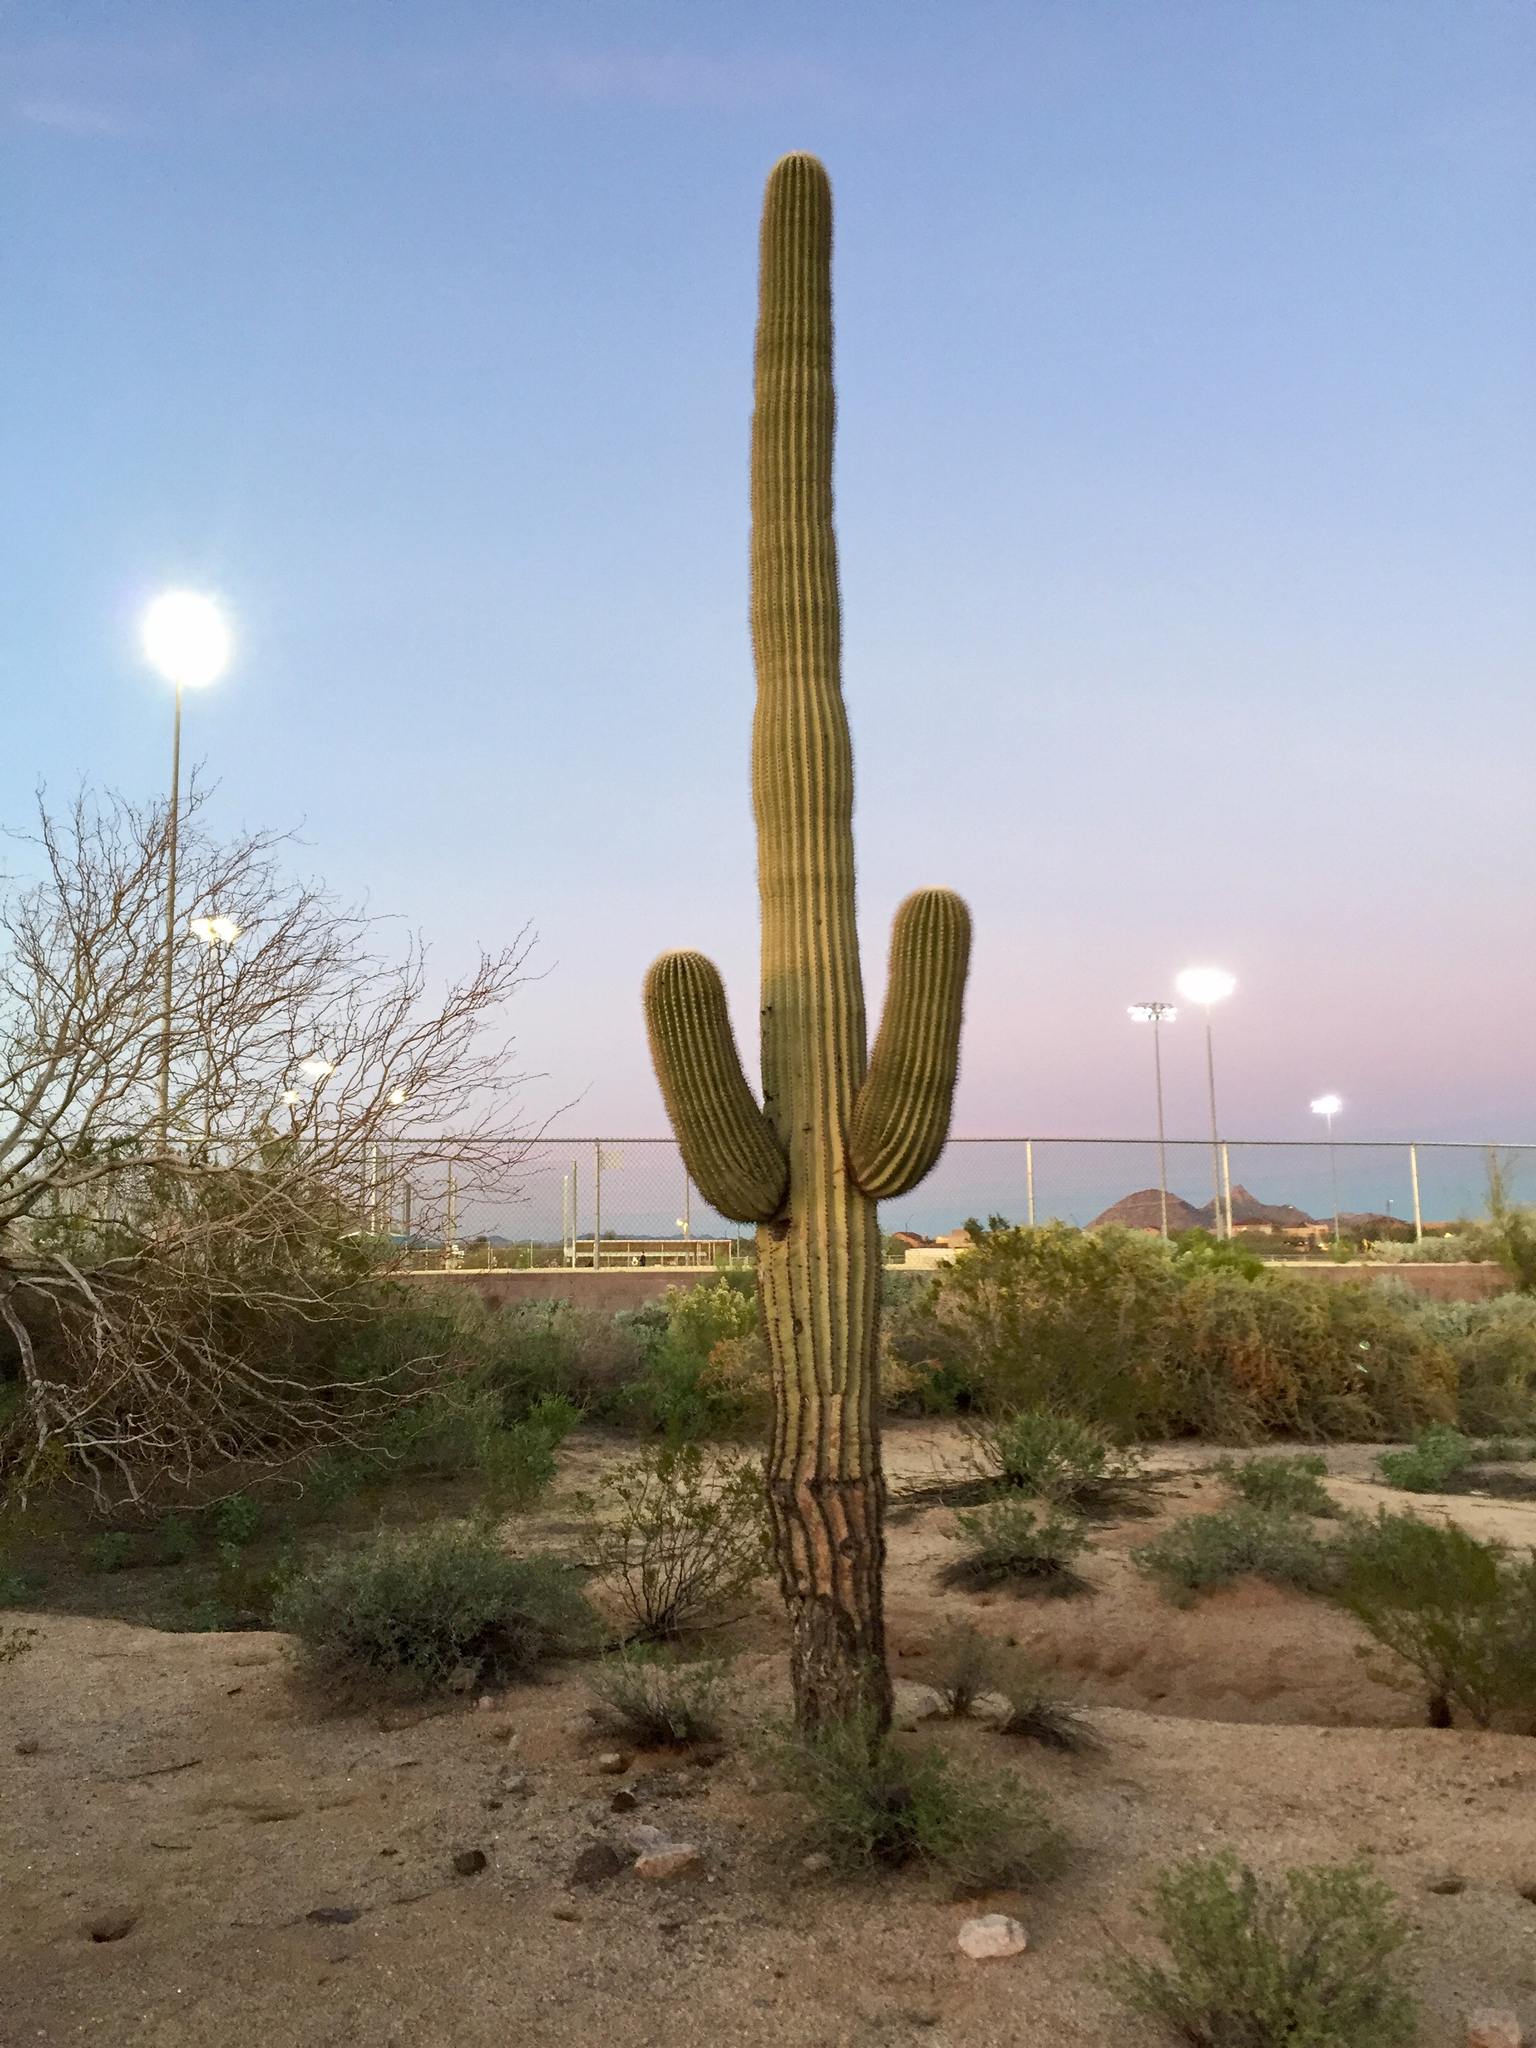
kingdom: Plantae
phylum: Tracheophyta
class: Magnoliopsida
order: Caryophyllales
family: Cactaceae
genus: Carnegiea
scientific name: Carnegiea gigantea
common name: Saguaro
